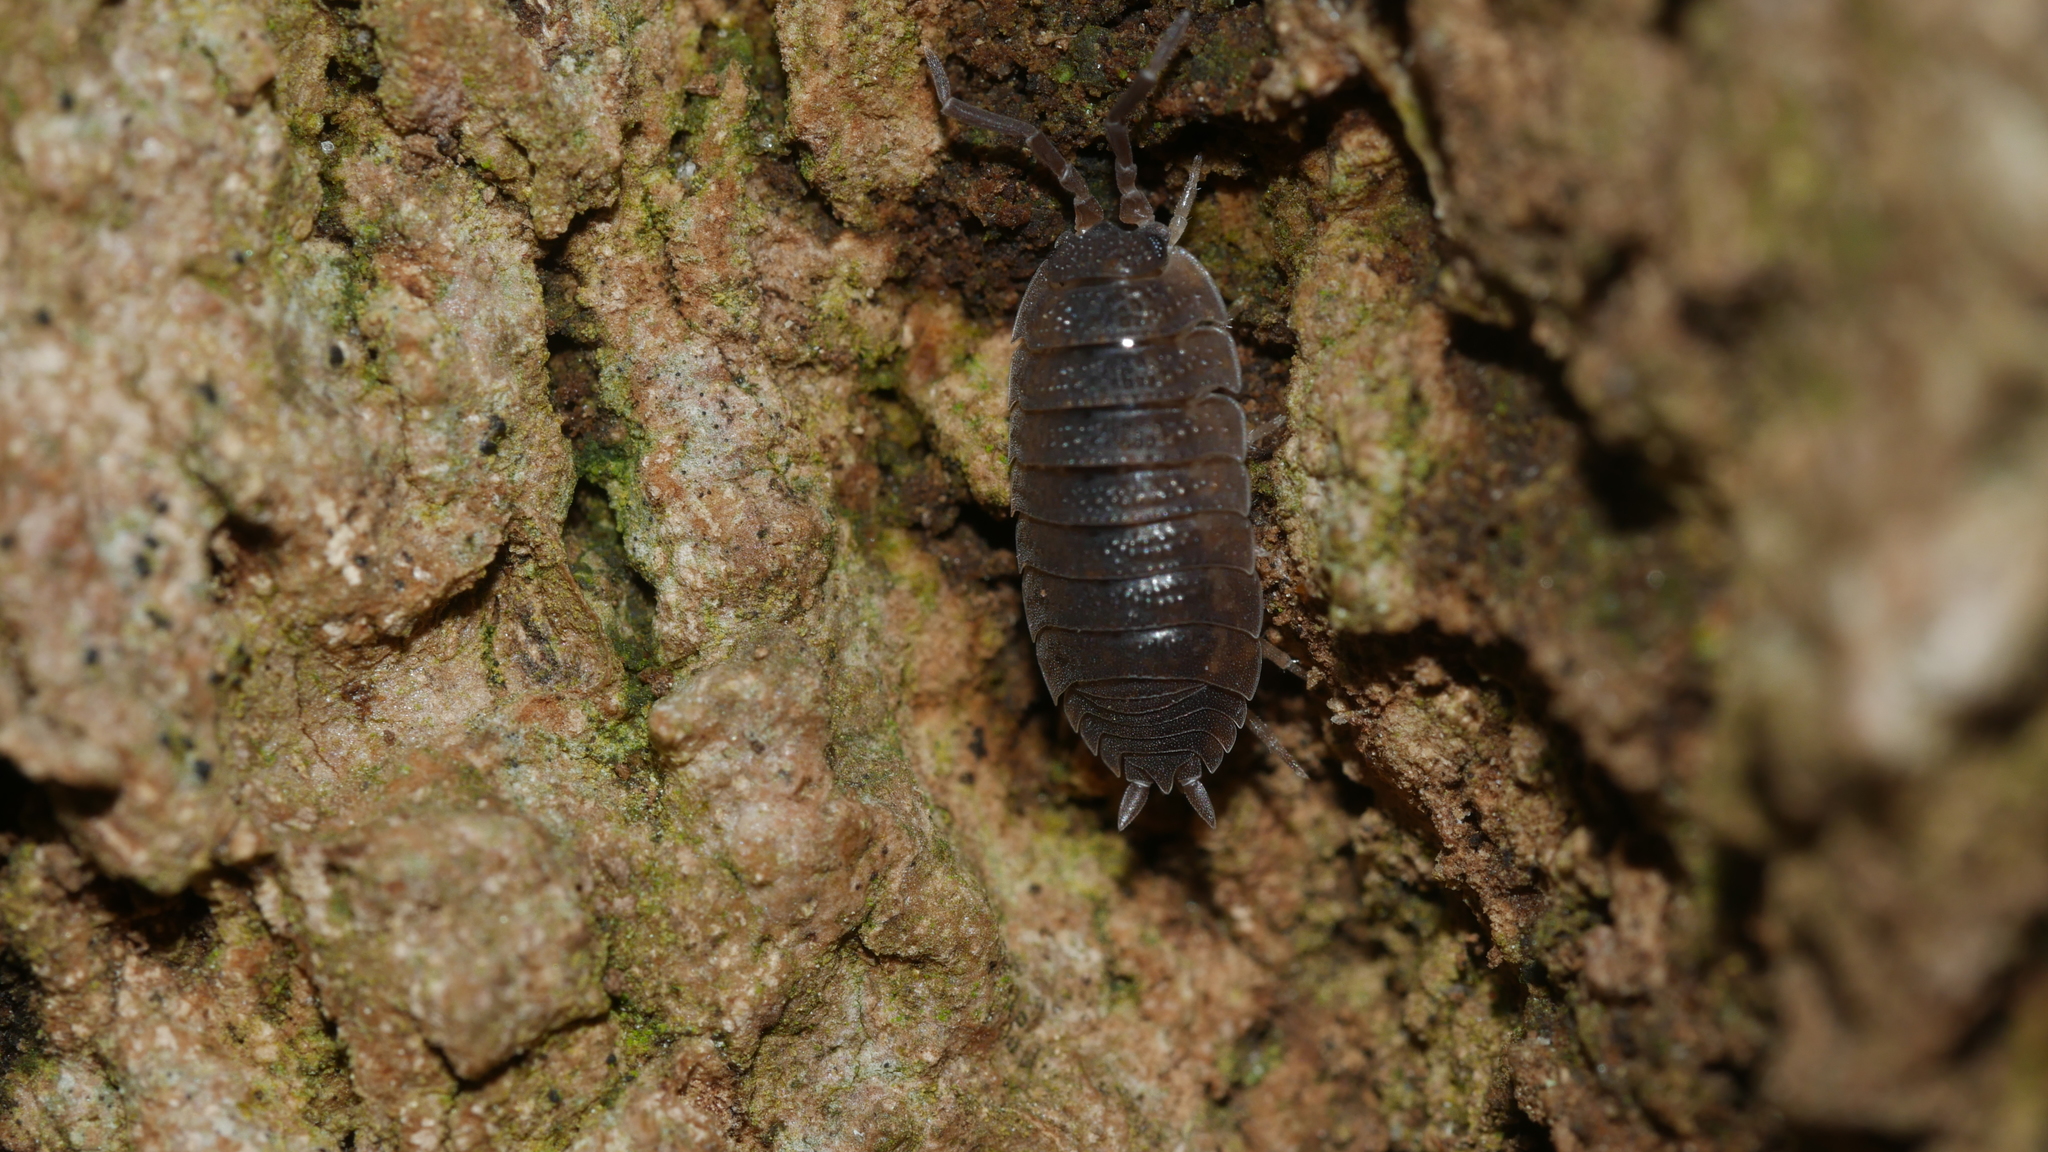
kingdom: Animalia
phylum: Arthropoda
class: Malacostraca
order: Isopoda
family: Porcellionidae
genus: Porcellio
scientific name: Porcellio scaber
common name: Common rough woodlouse
